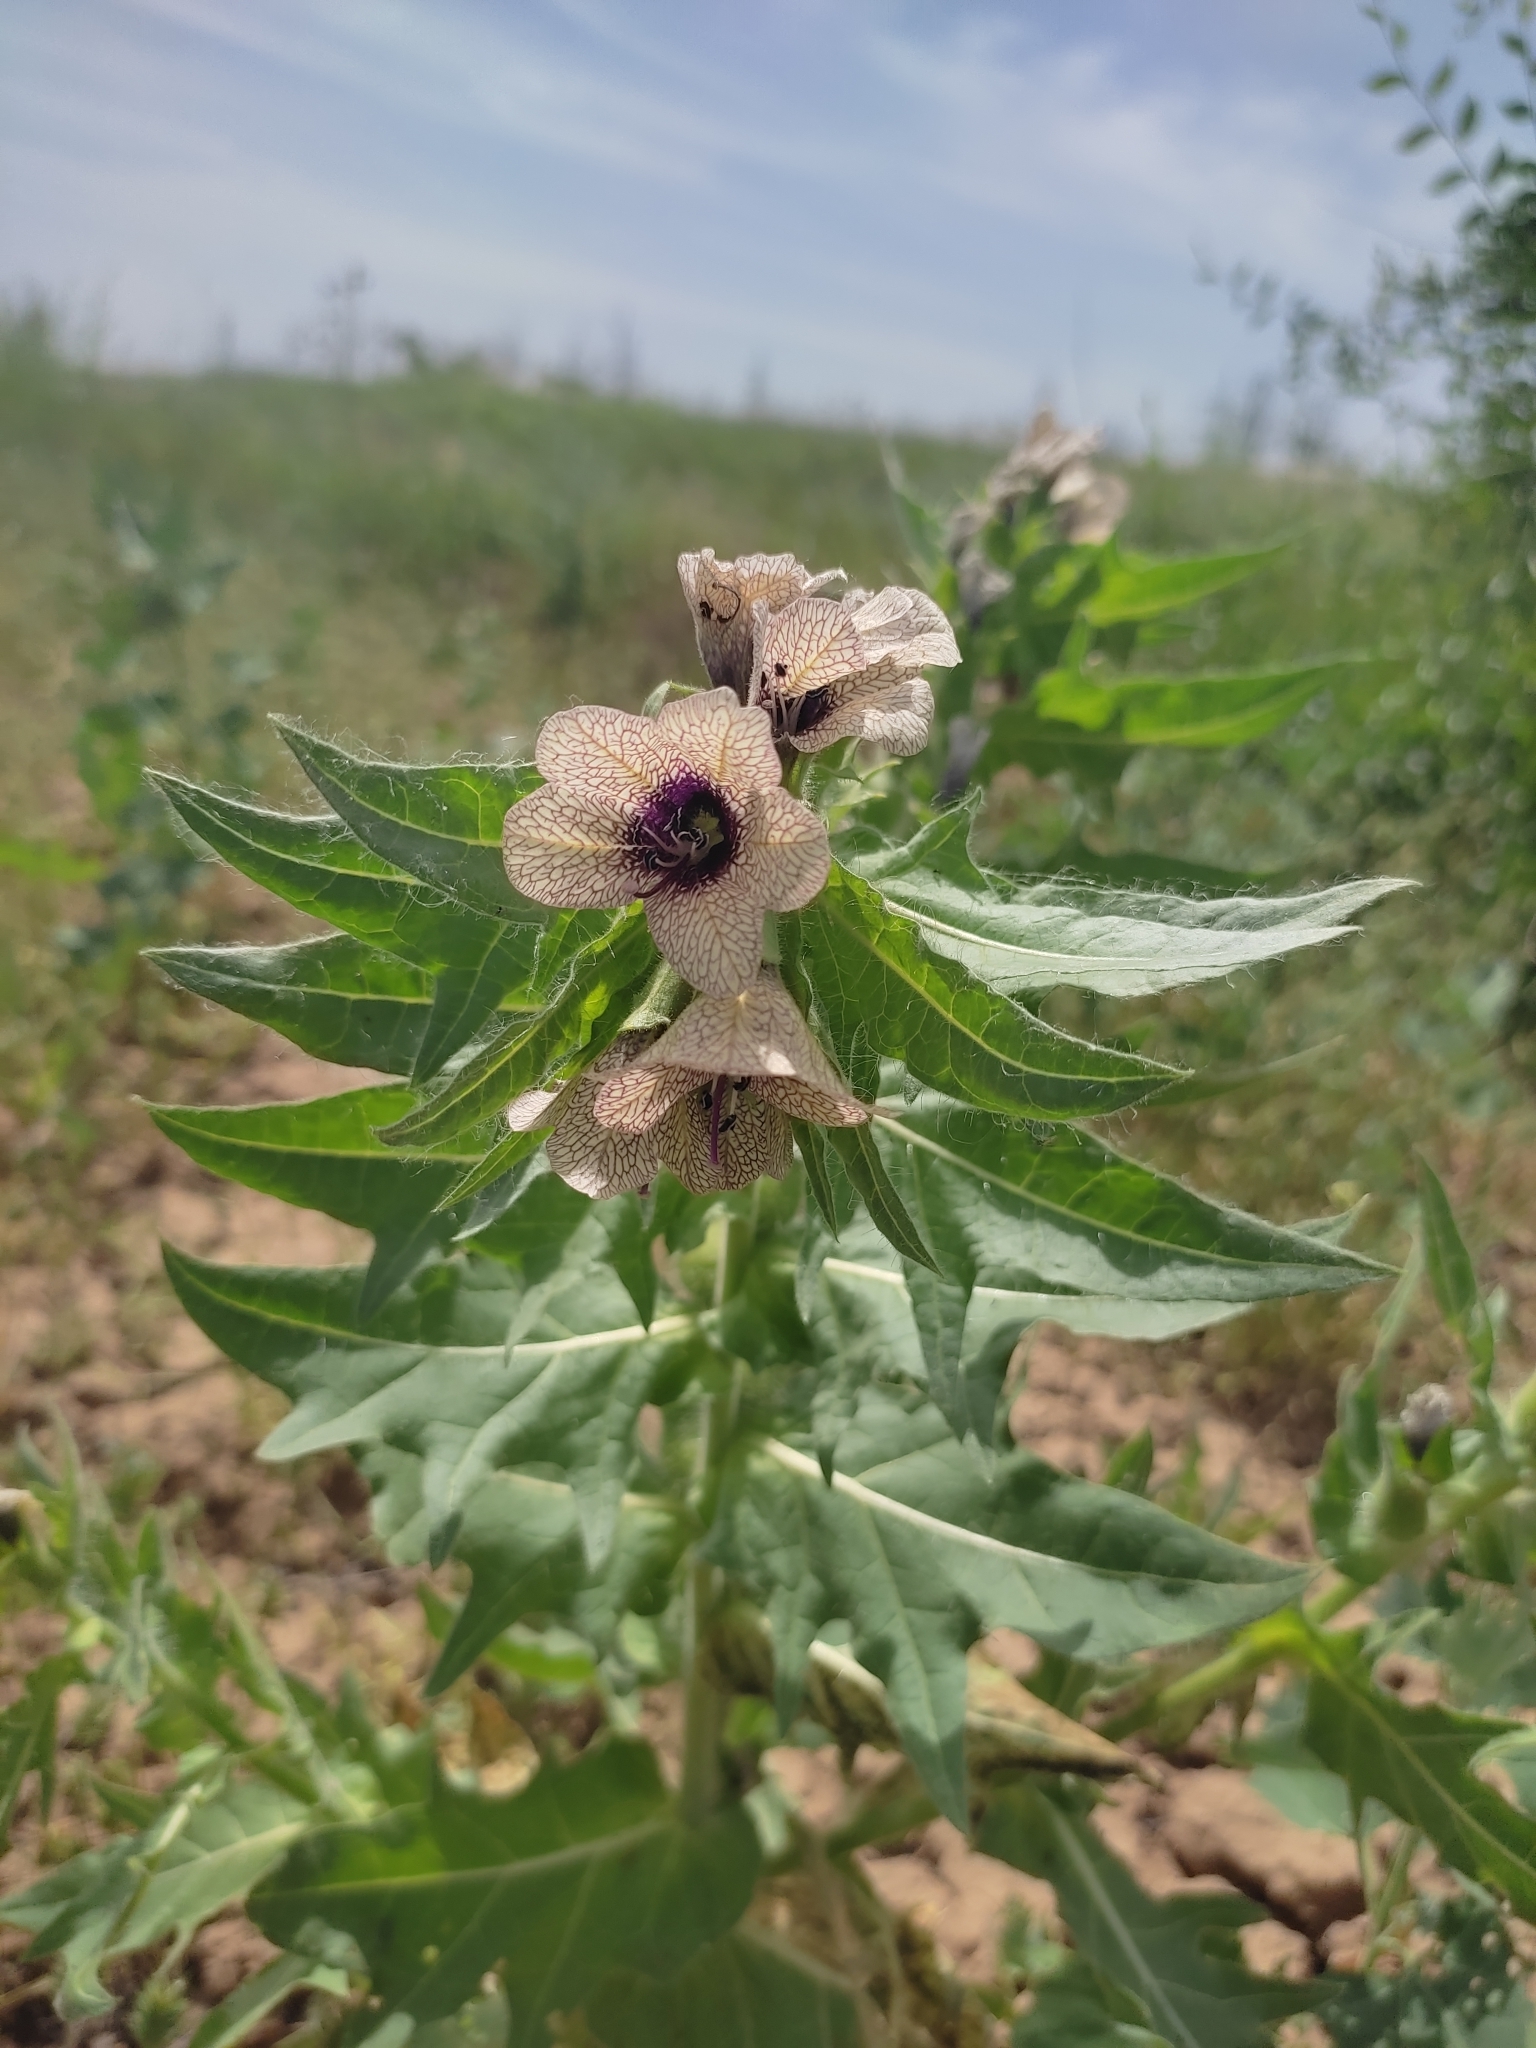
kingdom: Plantae
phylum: Tracheophyta
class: Magnoliopsida
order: Solanales
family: Solanaceae
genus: Hyoscyamus
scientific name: Hyoscyamus niger
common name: Henbane
